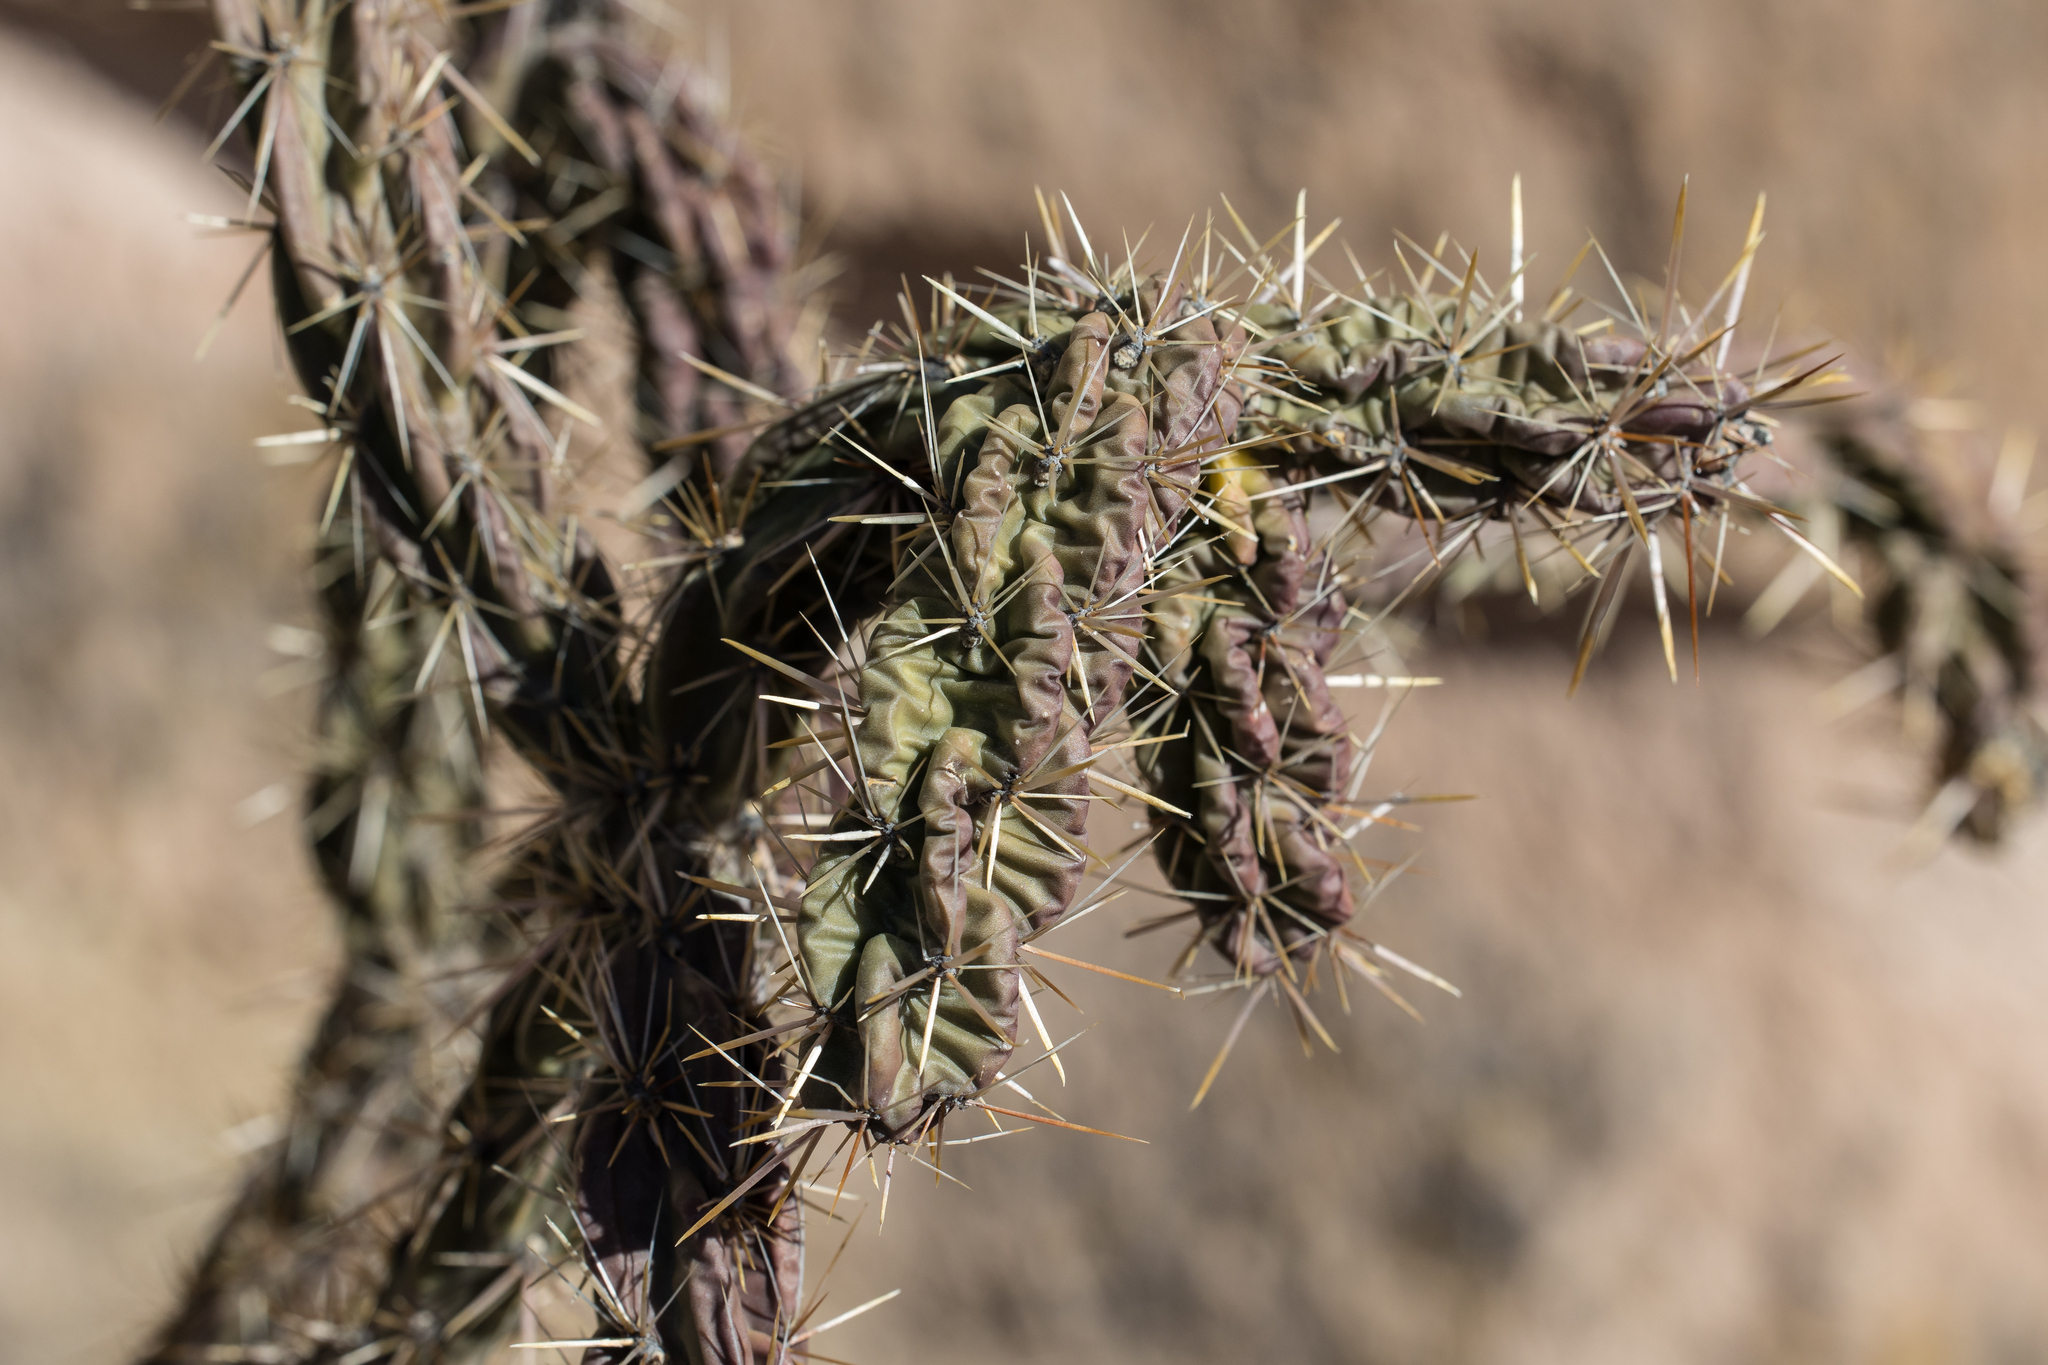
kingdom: Plantae
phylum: Tracheophyta
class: Magnoliopsida
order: Caryophyllales
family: Cactaceae
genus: Cylindropuntia
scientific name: Cylindropuntia imbricata
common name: Candelabrum cactus
